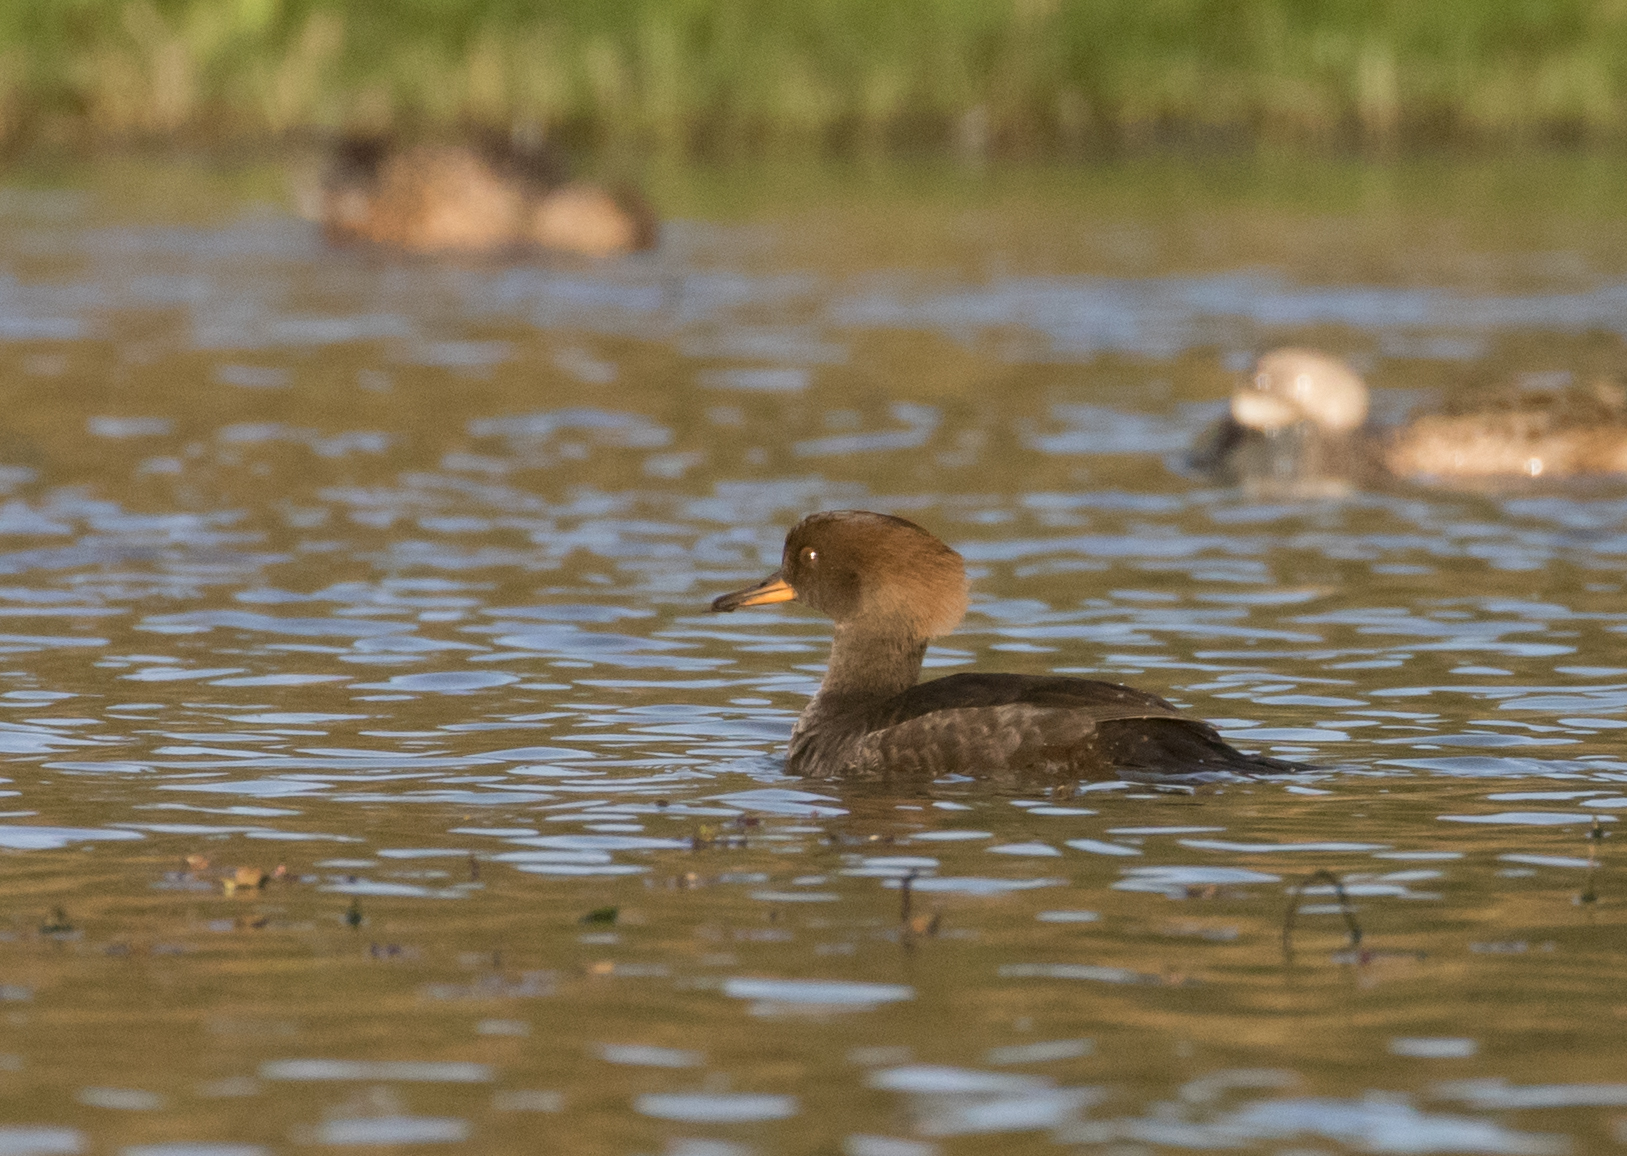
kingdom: Animalia
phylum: Chordata
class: Aves
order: Anseriformes
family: Anatidae
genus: Lophodytes
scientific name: Lophodytes cucullatus
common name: Hooded merganser
